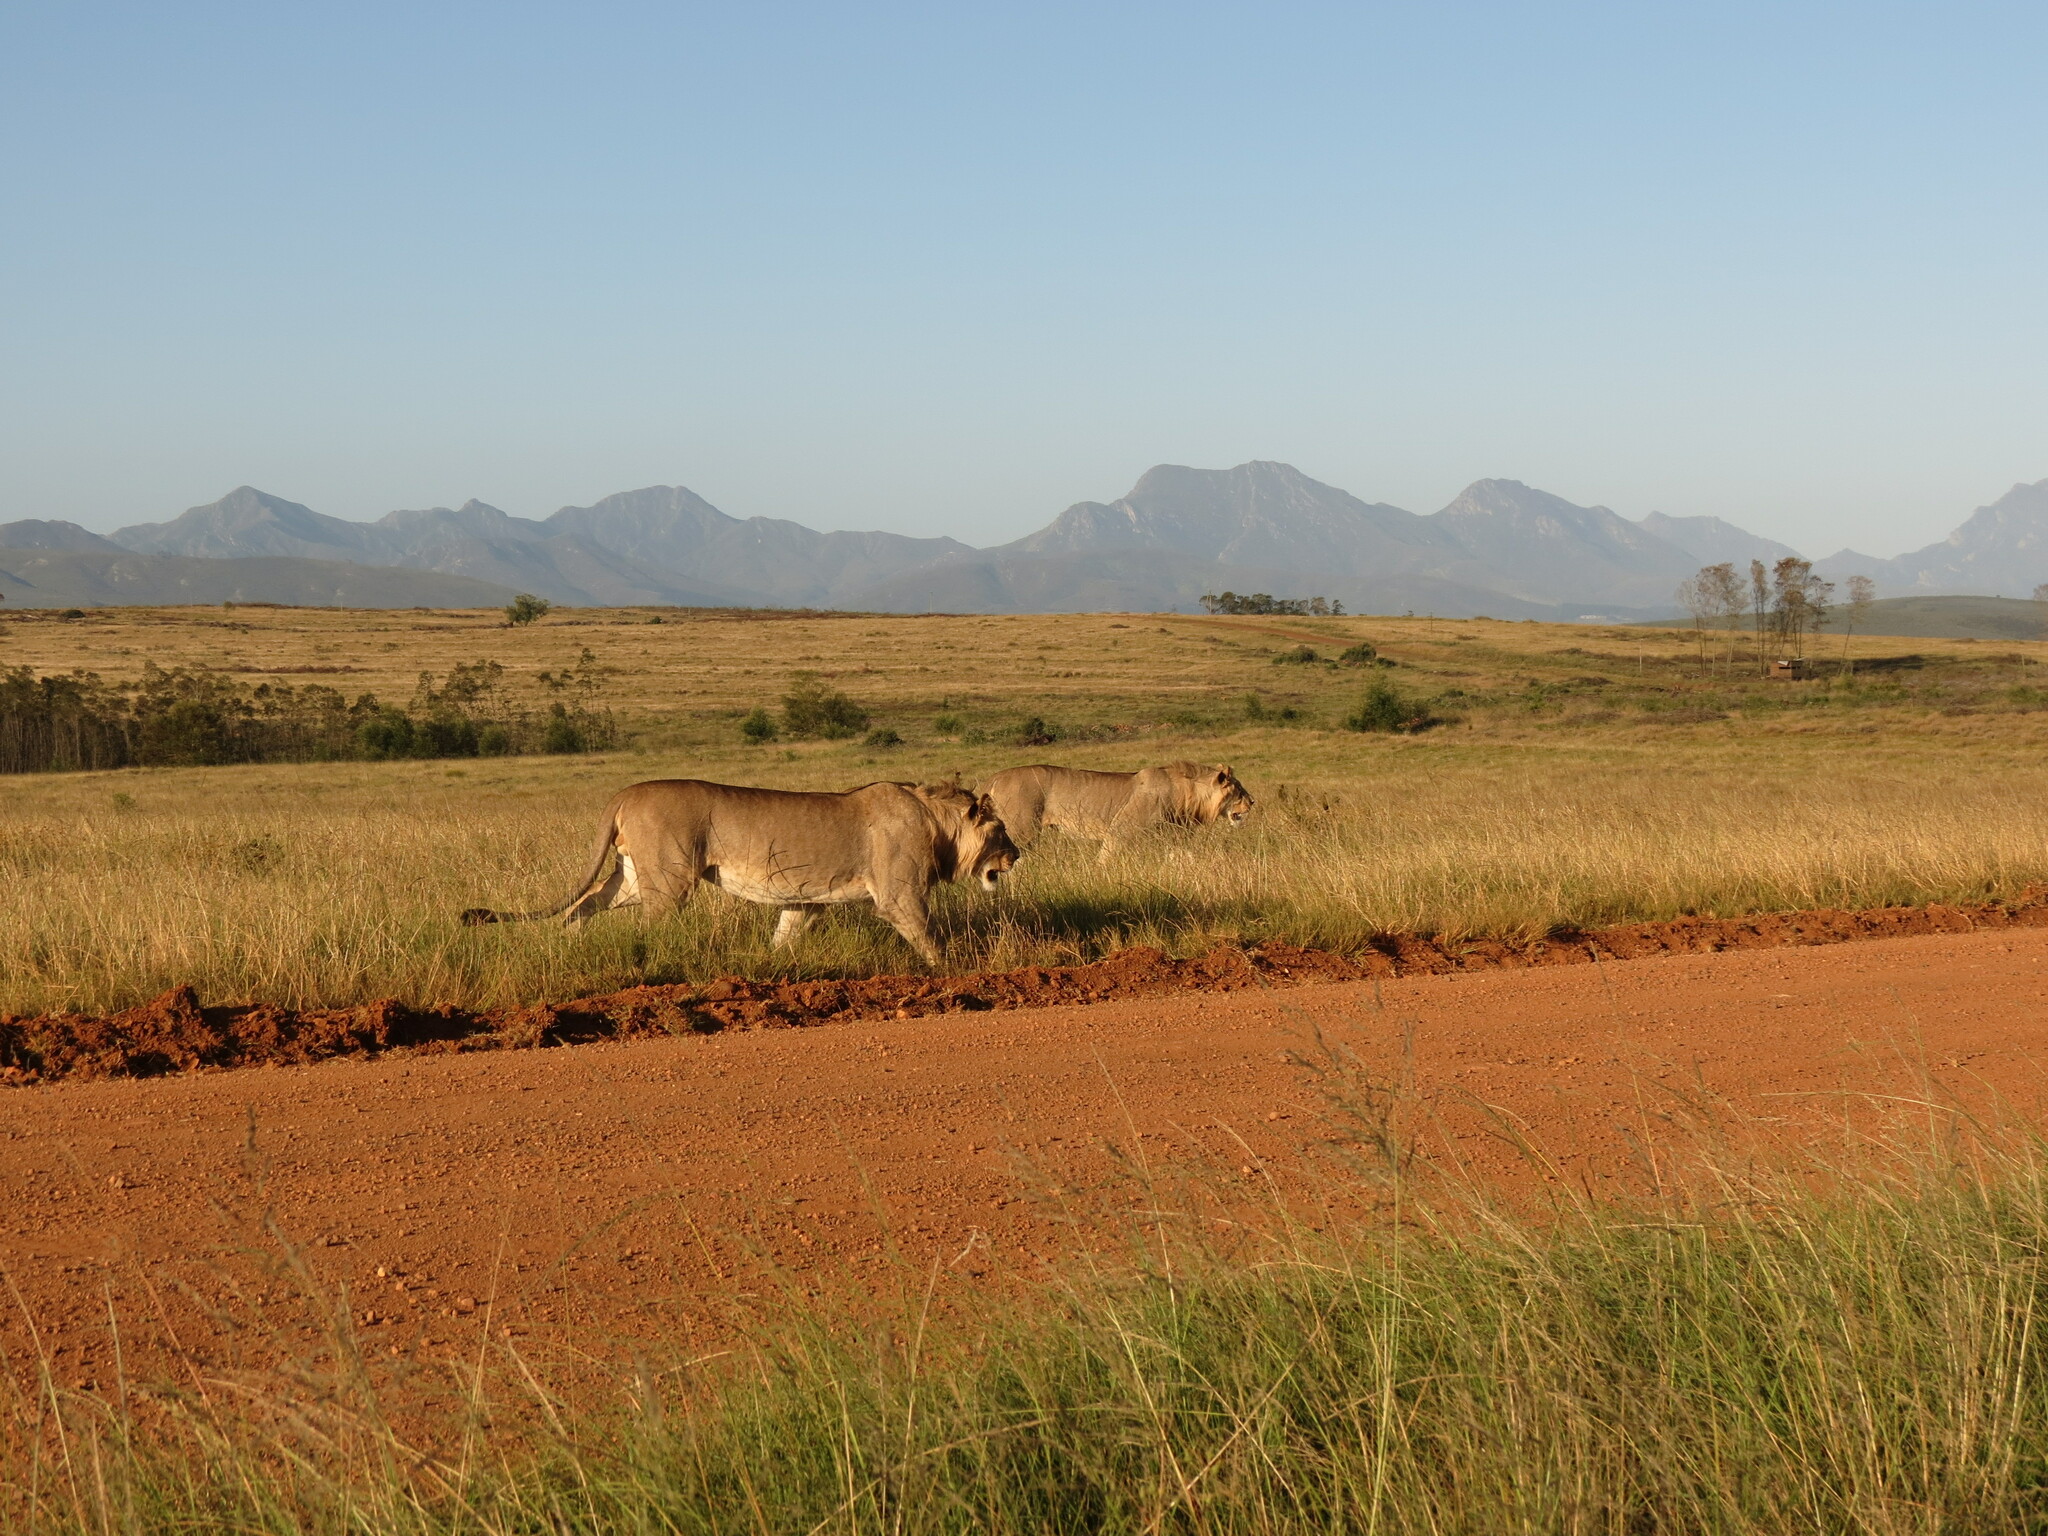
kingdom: Animalia
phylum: Chordata
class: Mammalia
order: Carnivora
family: Felidae
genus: Panthera
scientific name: Panthera leo
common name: Lion
